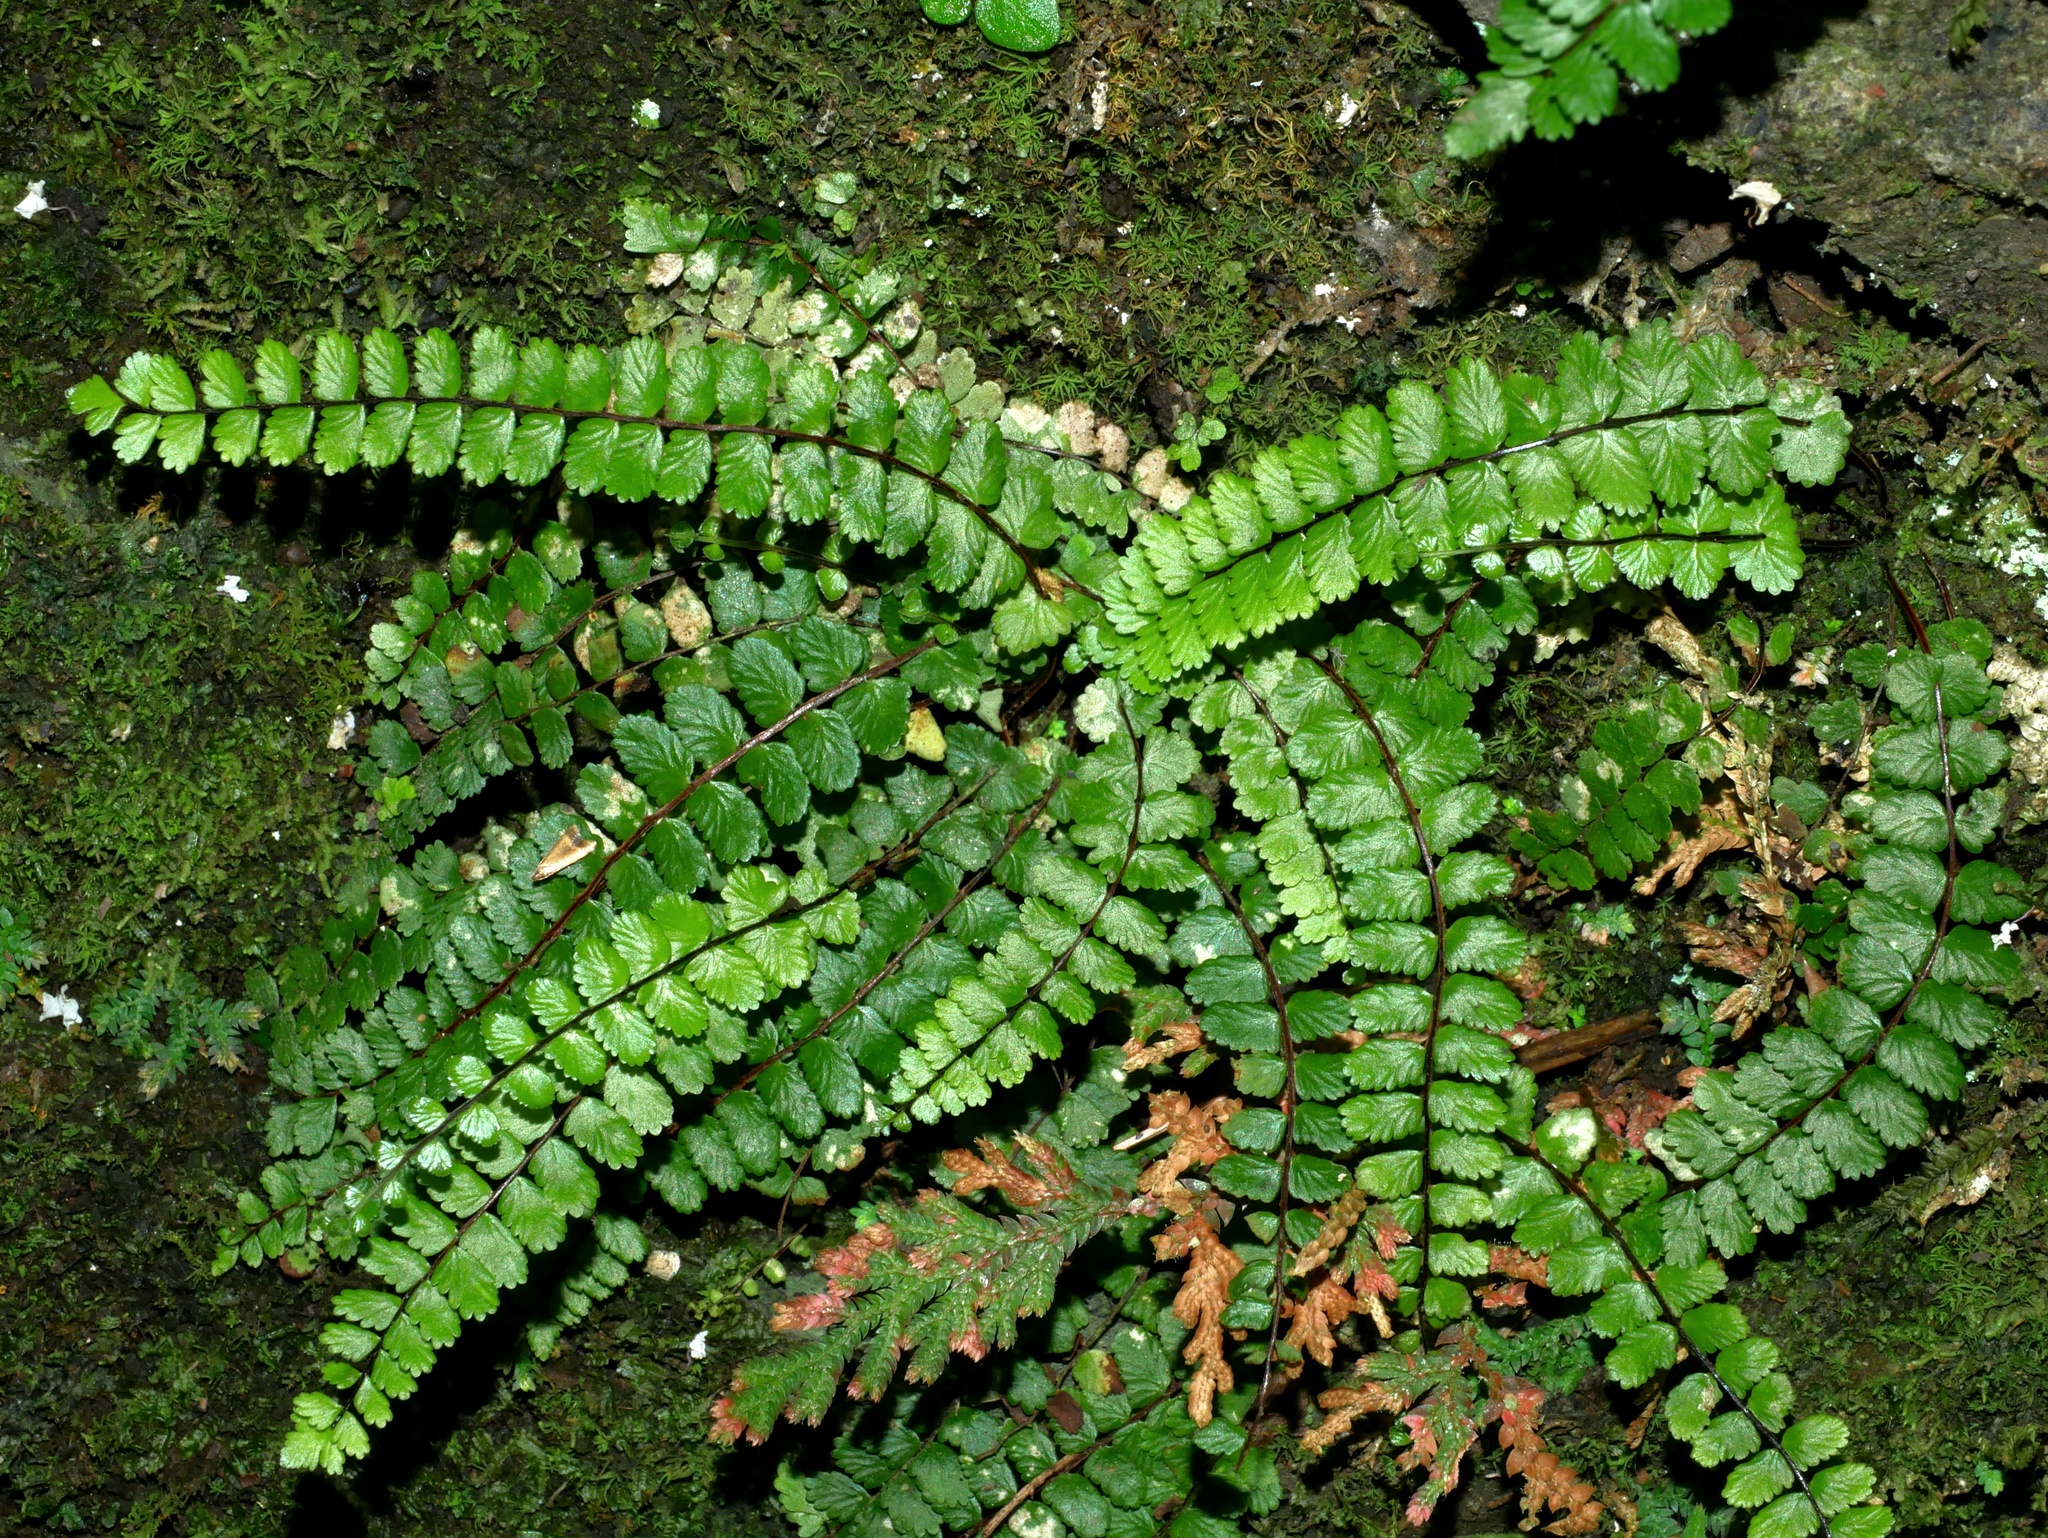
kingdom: Plantae
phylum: Tracheophyta
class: Polypodiopsida
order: Polypodiales
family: Aspleniaceae
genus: Asplenium
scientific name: Asplenium tripteropus
